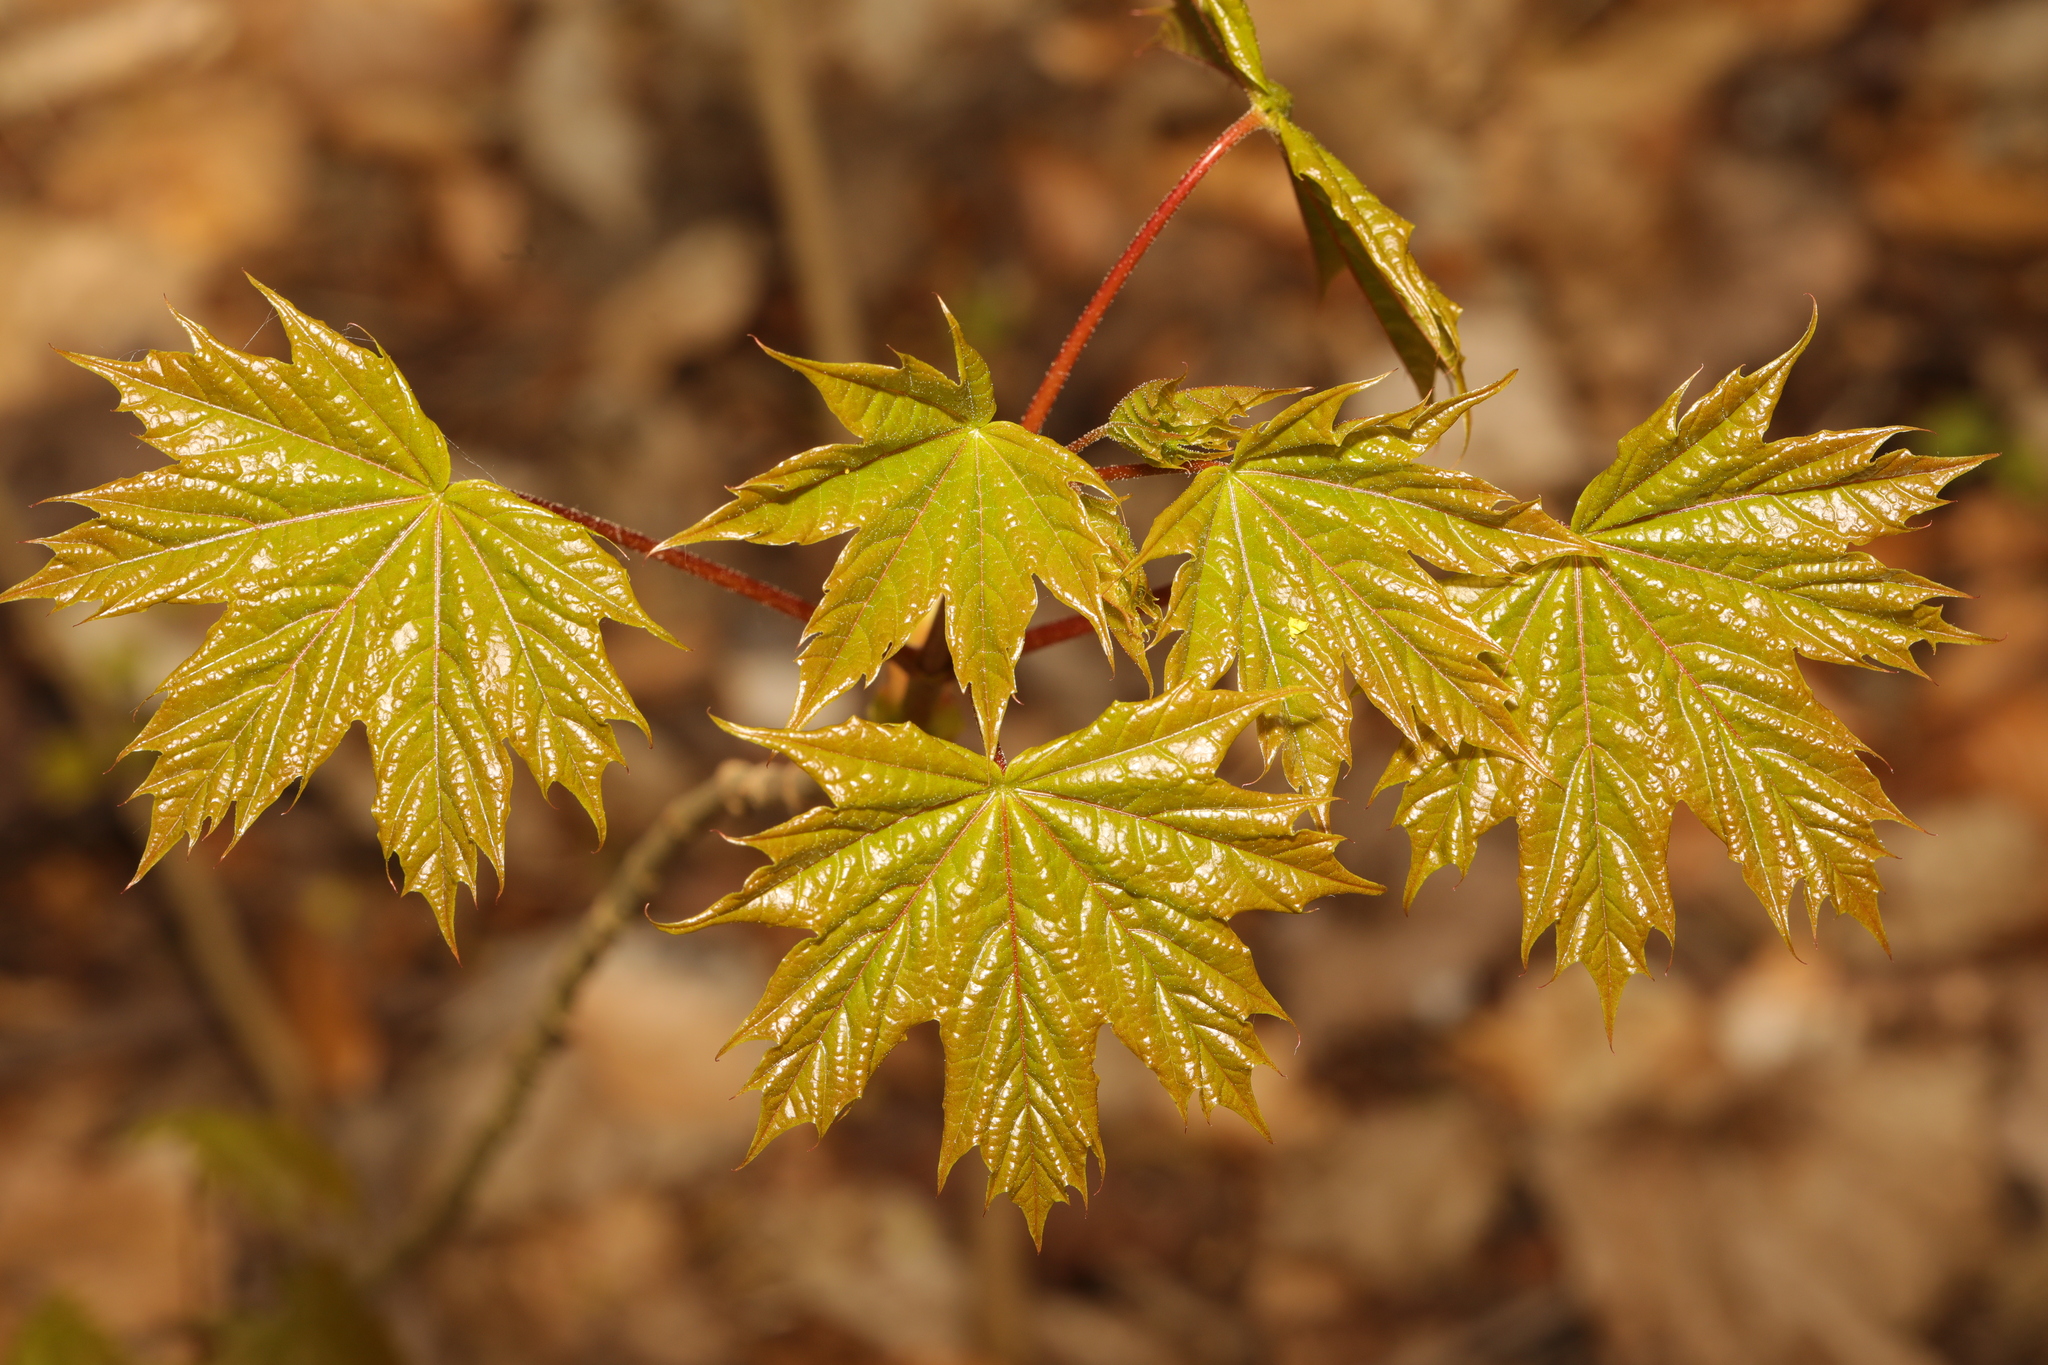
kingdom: Plantae
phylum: Tracheophyta
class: Magnoliopsida
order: Sapindales
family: Sapindaceae
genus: Acer
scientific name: Acer platanoides
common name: Norway maple
